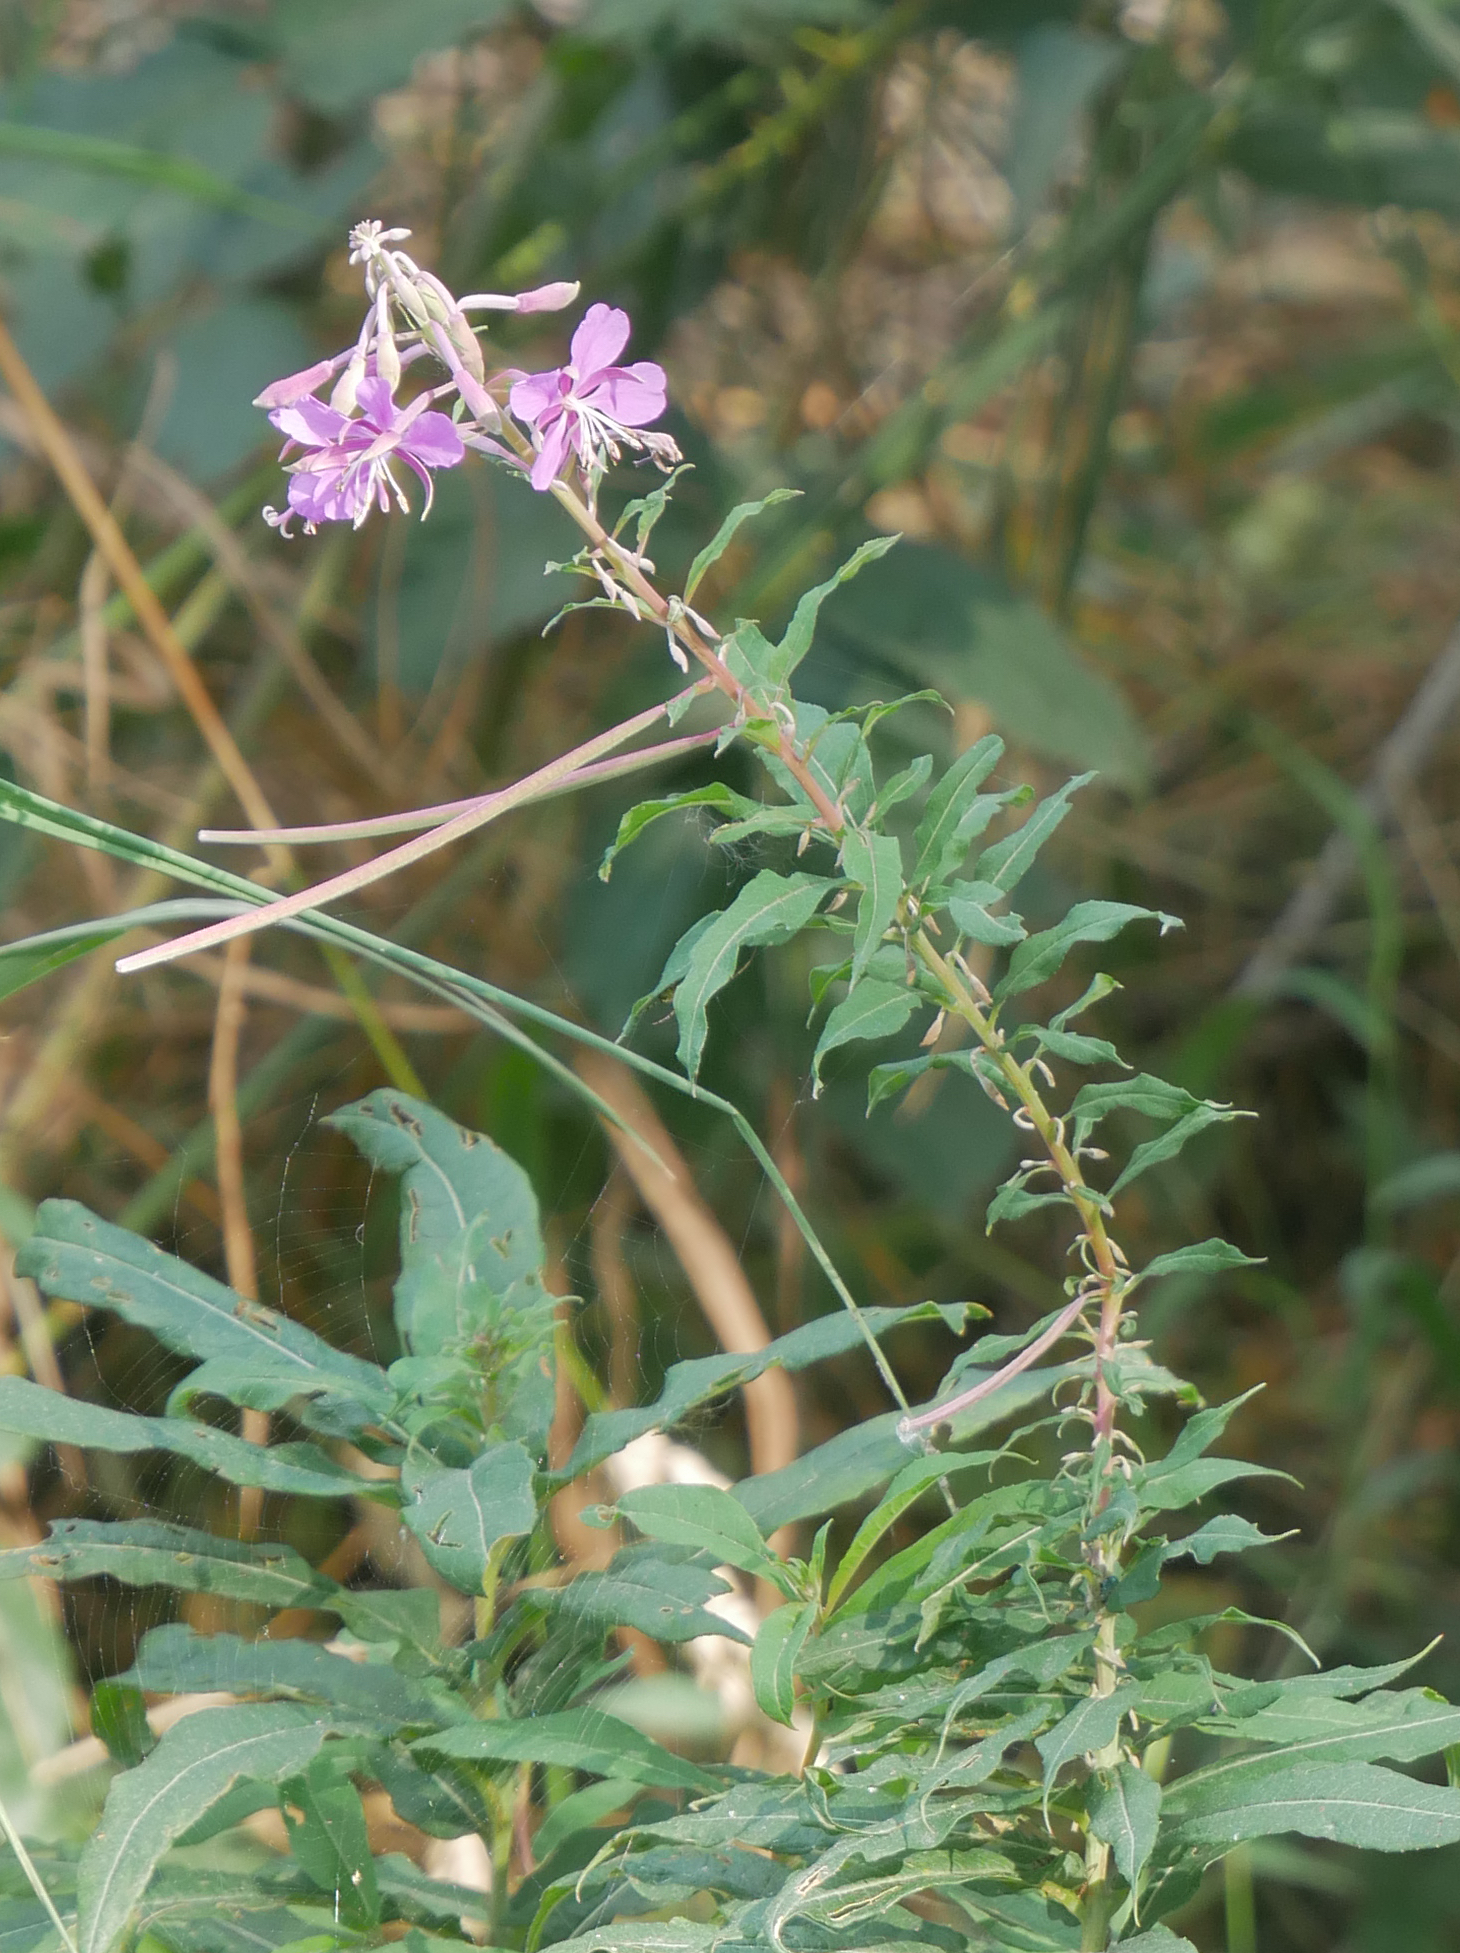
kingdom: Plantae
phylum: Tracheophyta
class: Magnoliopsida
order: Myrtales
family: Onagraceae
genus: Chamaenerion
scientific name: Chamaenerion angustifolium
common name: Fireweed
